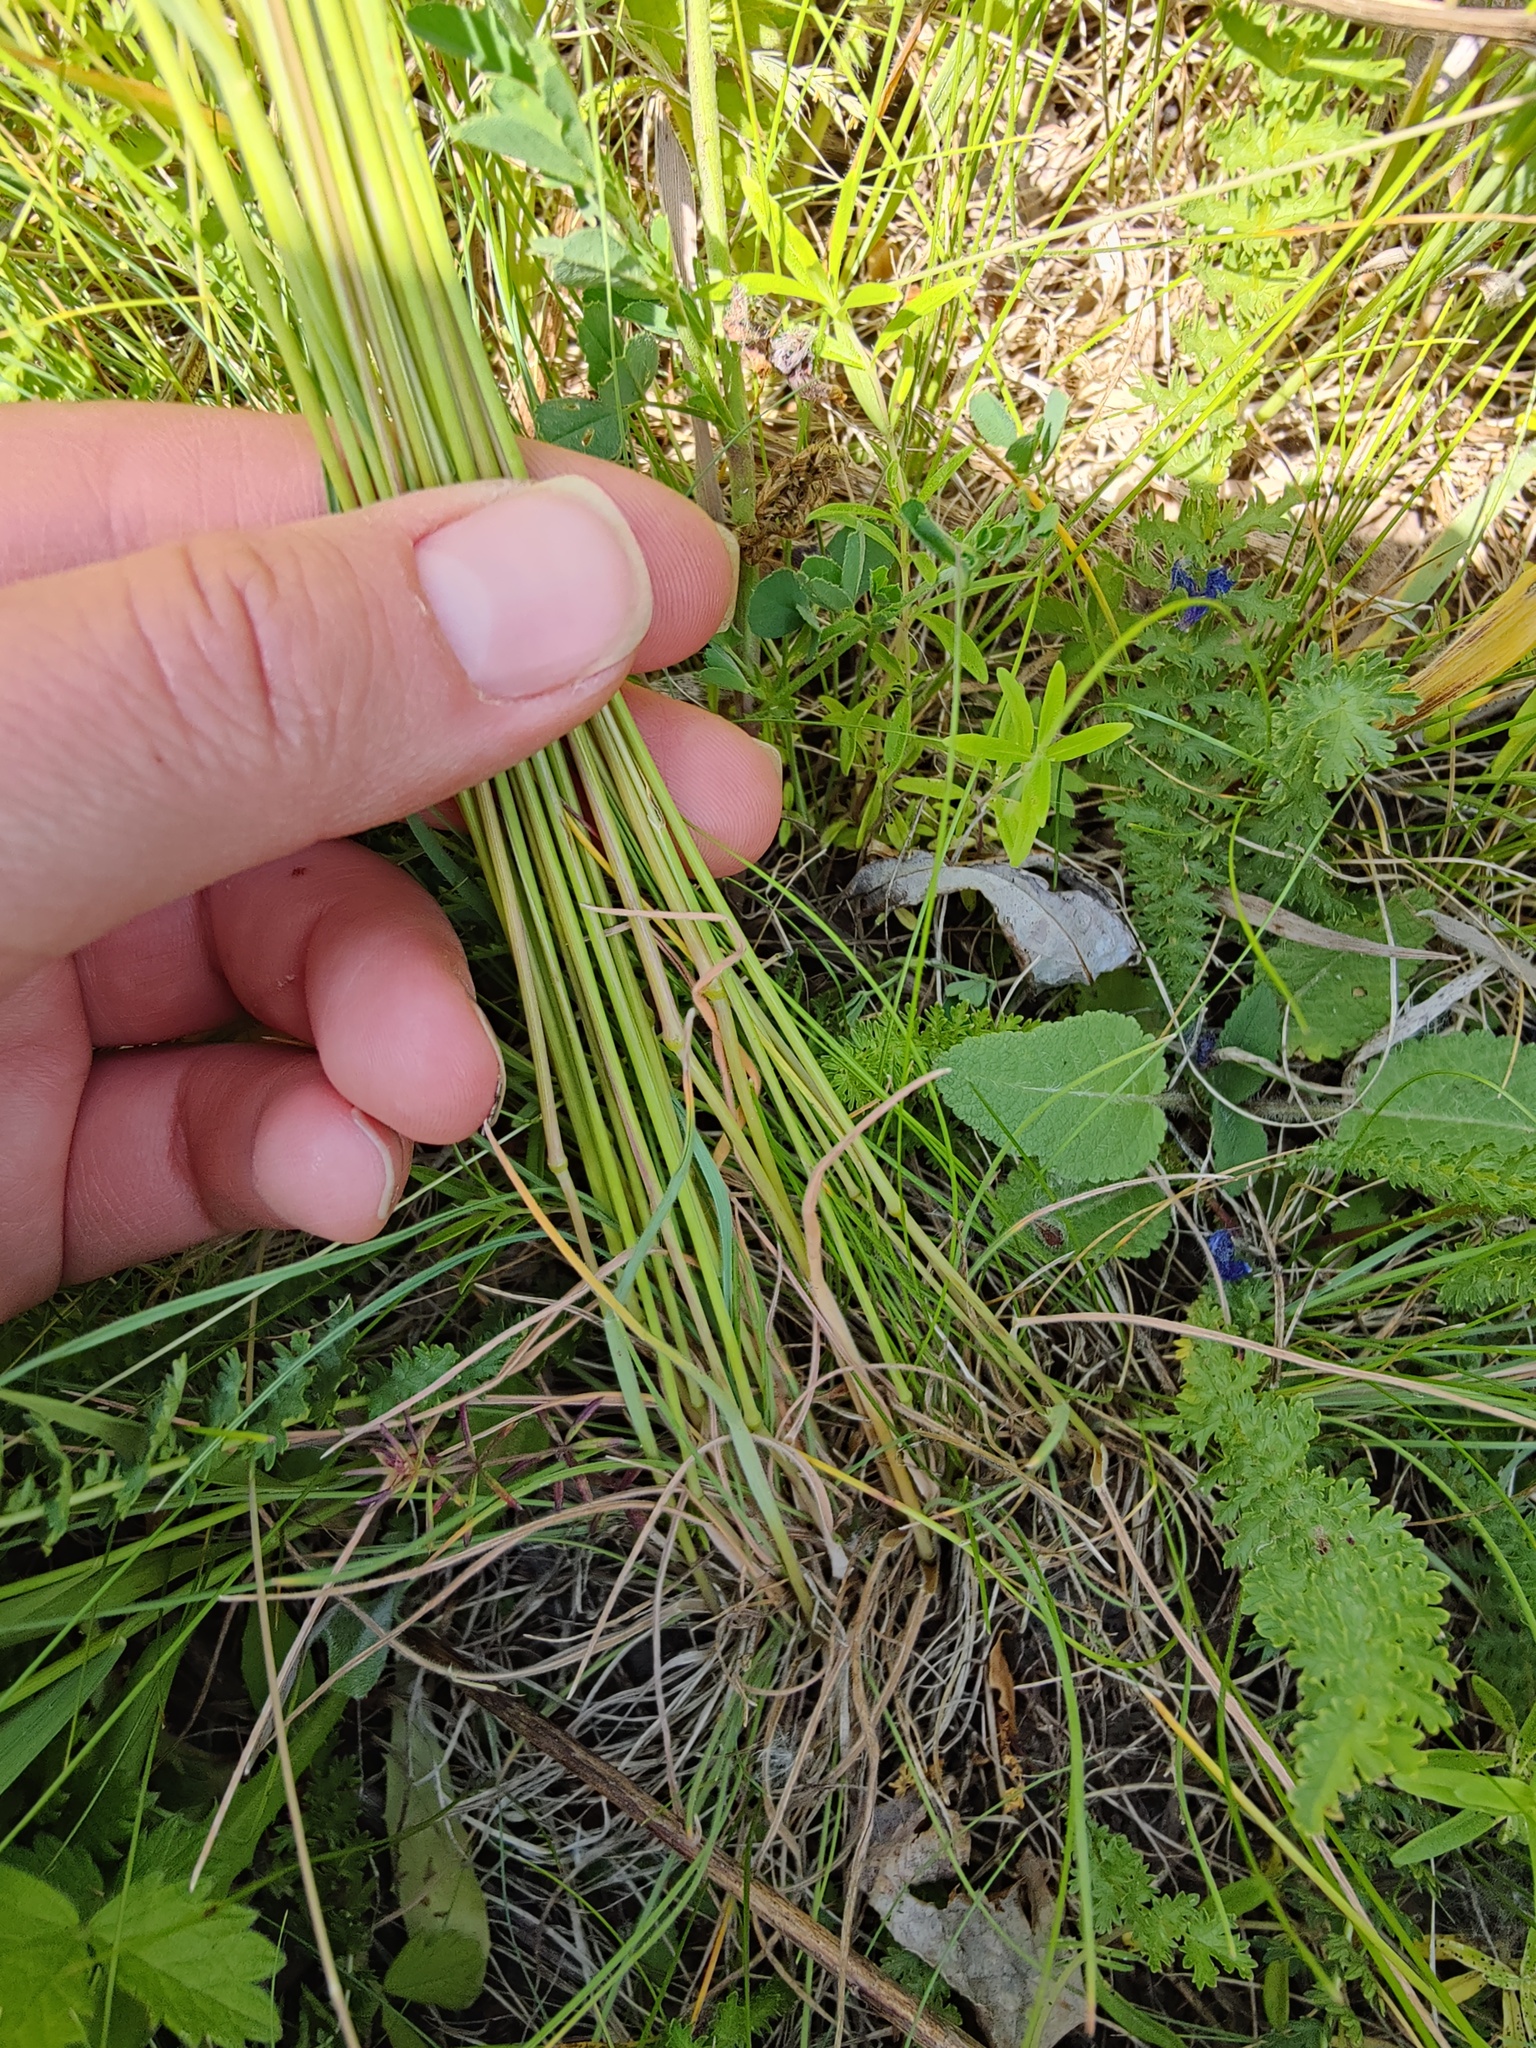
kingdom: Plantae
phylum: Tracheophyta
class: Liliopsida
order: Poales
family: Poaceae
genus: Koeleria
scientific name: Koeleria macrantha
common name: Crested hair-grass
